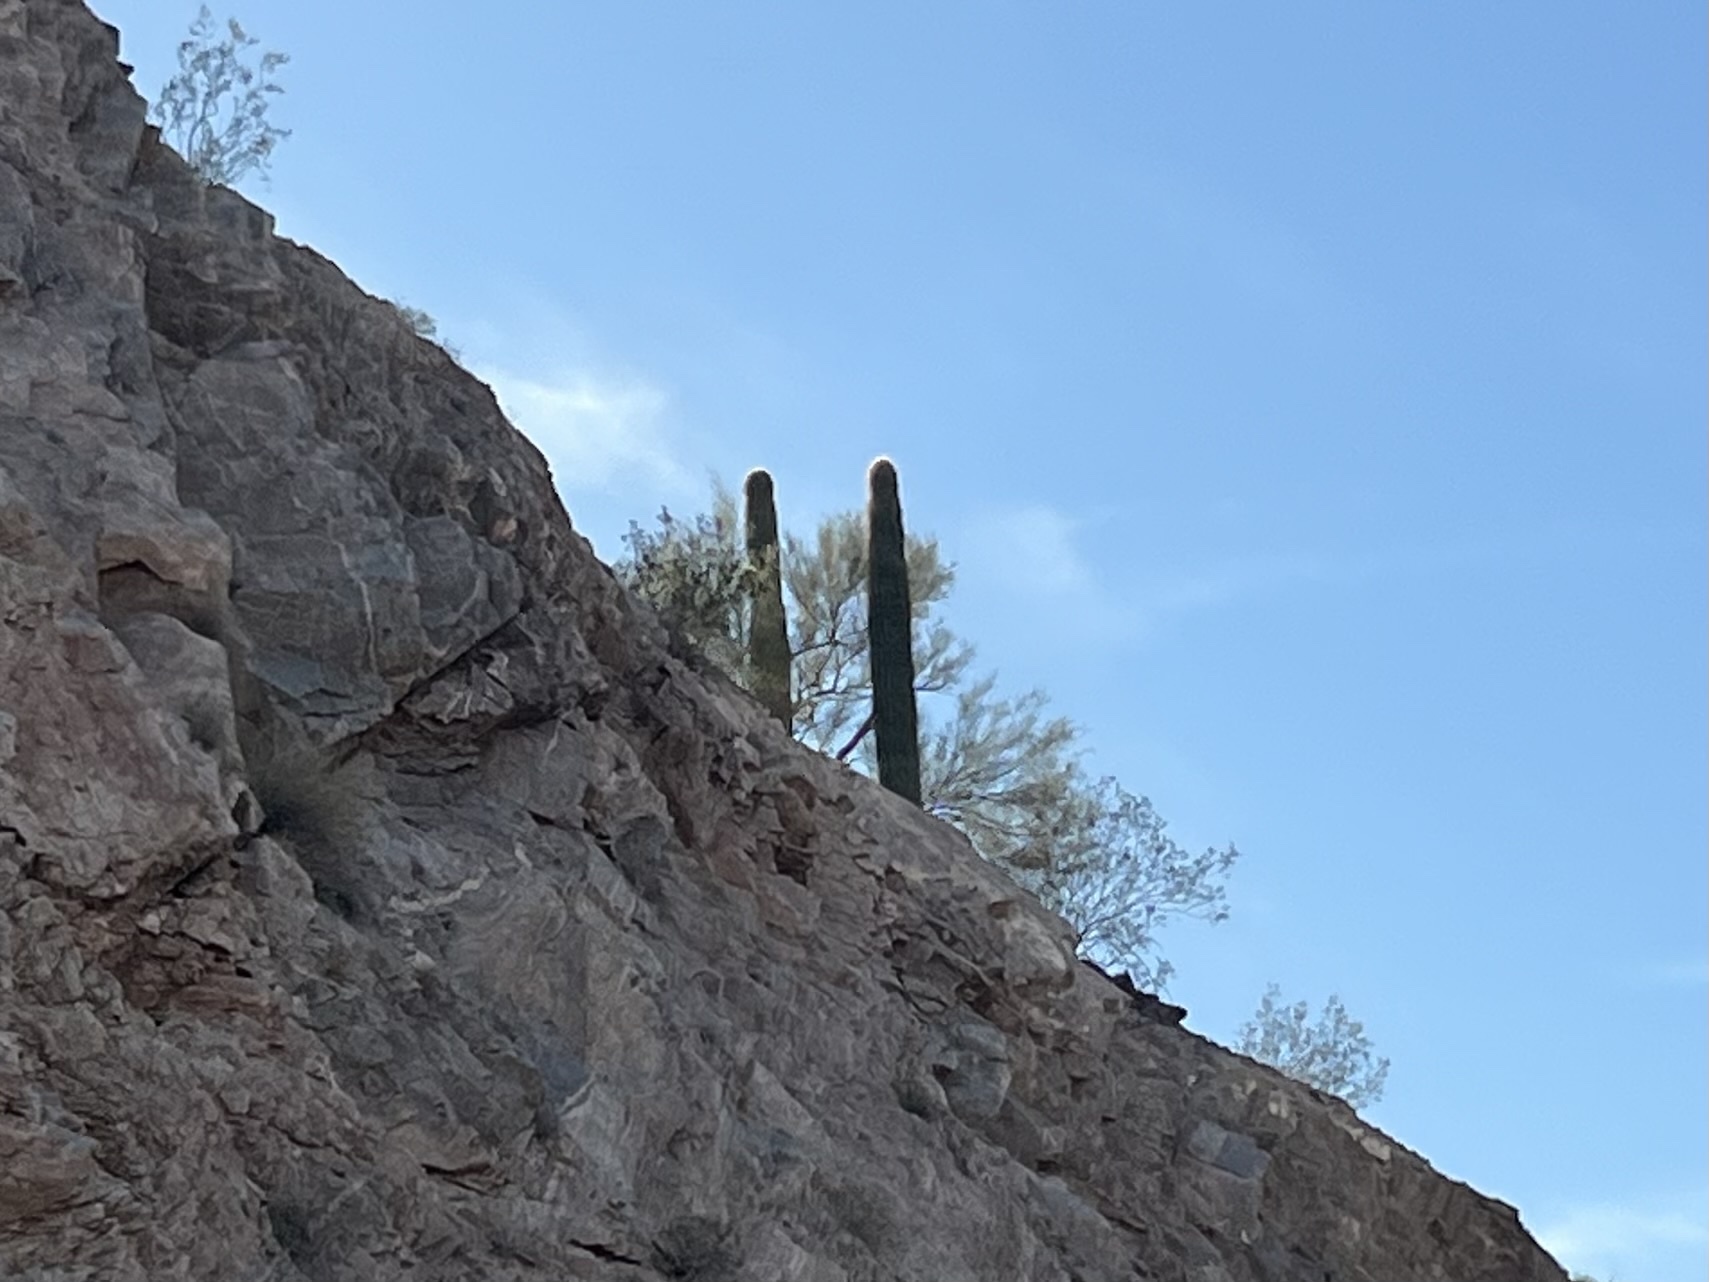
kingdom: Plantae
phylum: Tracheophyta
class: Magnoliopsida
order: Caryophyllales
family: Cactaceae
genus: Carnegiea
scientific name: Carnegiea gigantea
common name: Saguaro
